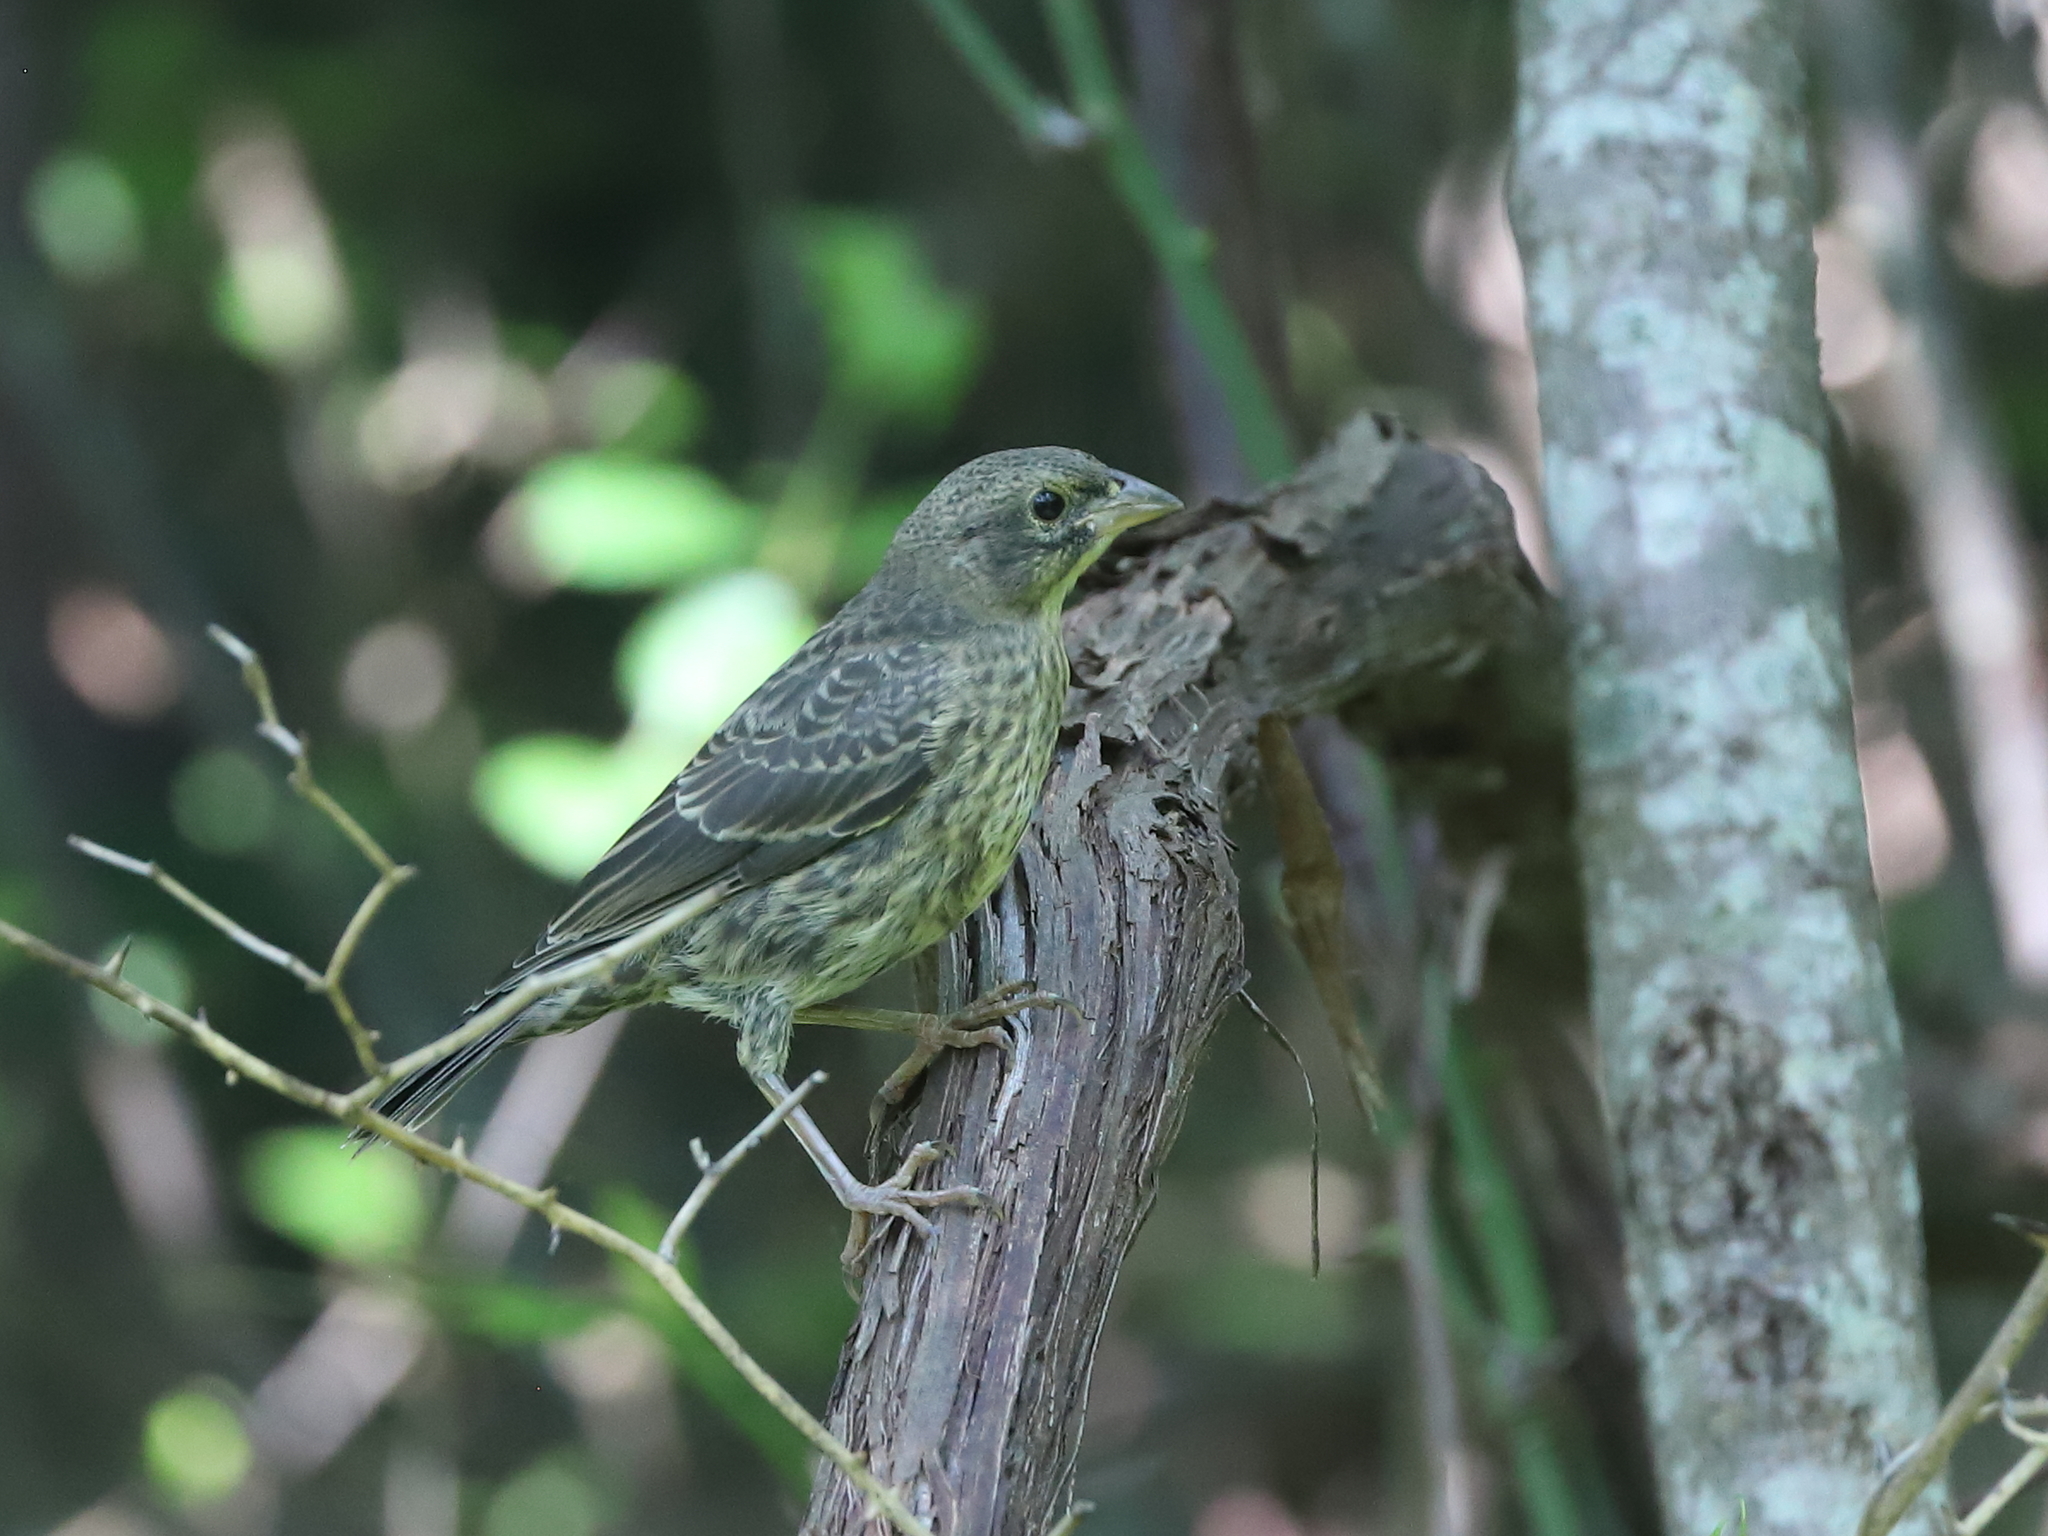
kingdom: Animalia
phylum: Chordata
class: Aves
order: Passeriformes
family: Icteridae
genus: Molothrus
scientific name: Molothrus ater
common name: Brown-headed cowbird
